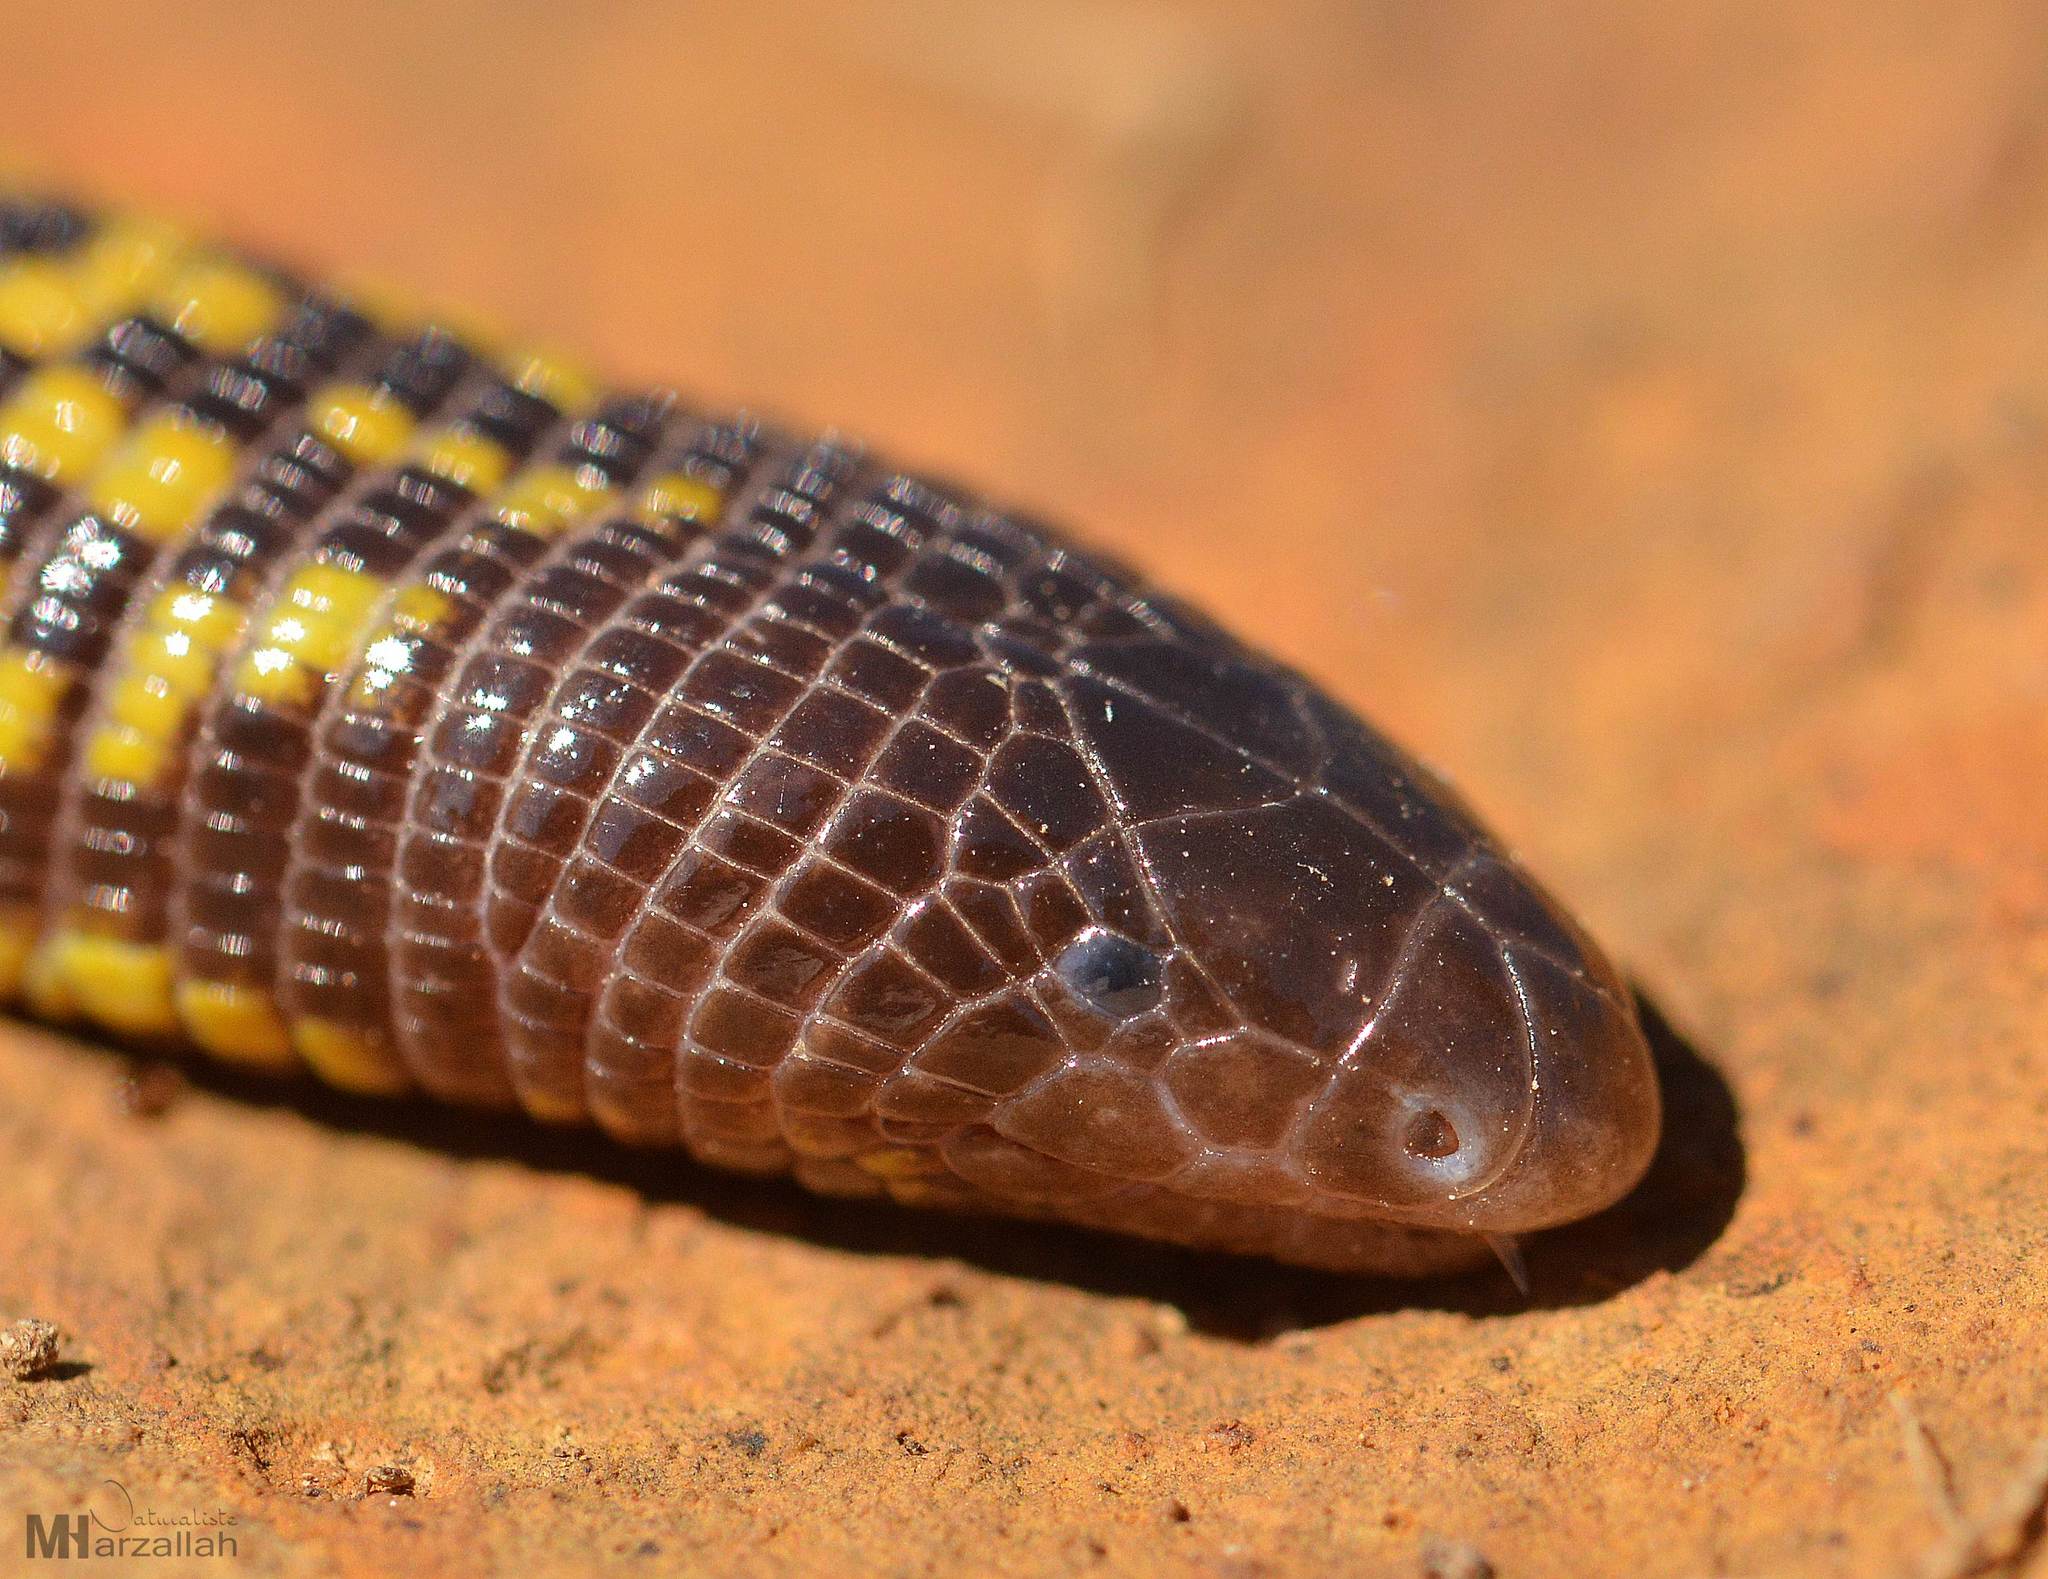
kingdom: Animalia
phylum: Chordata
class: Squamata
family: Trogonophidae
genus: Trogonophis
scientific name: Trogonophis wiegmanni
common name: Checkerboard worm lizard
